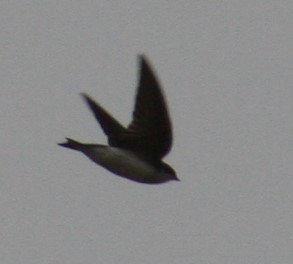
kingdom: Animalia
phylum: Chordata
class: Aves
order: Passeriformes
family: Hirundinidae
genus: Tachycineta
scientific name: Tachycineta bicolor
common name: Tree swallow
